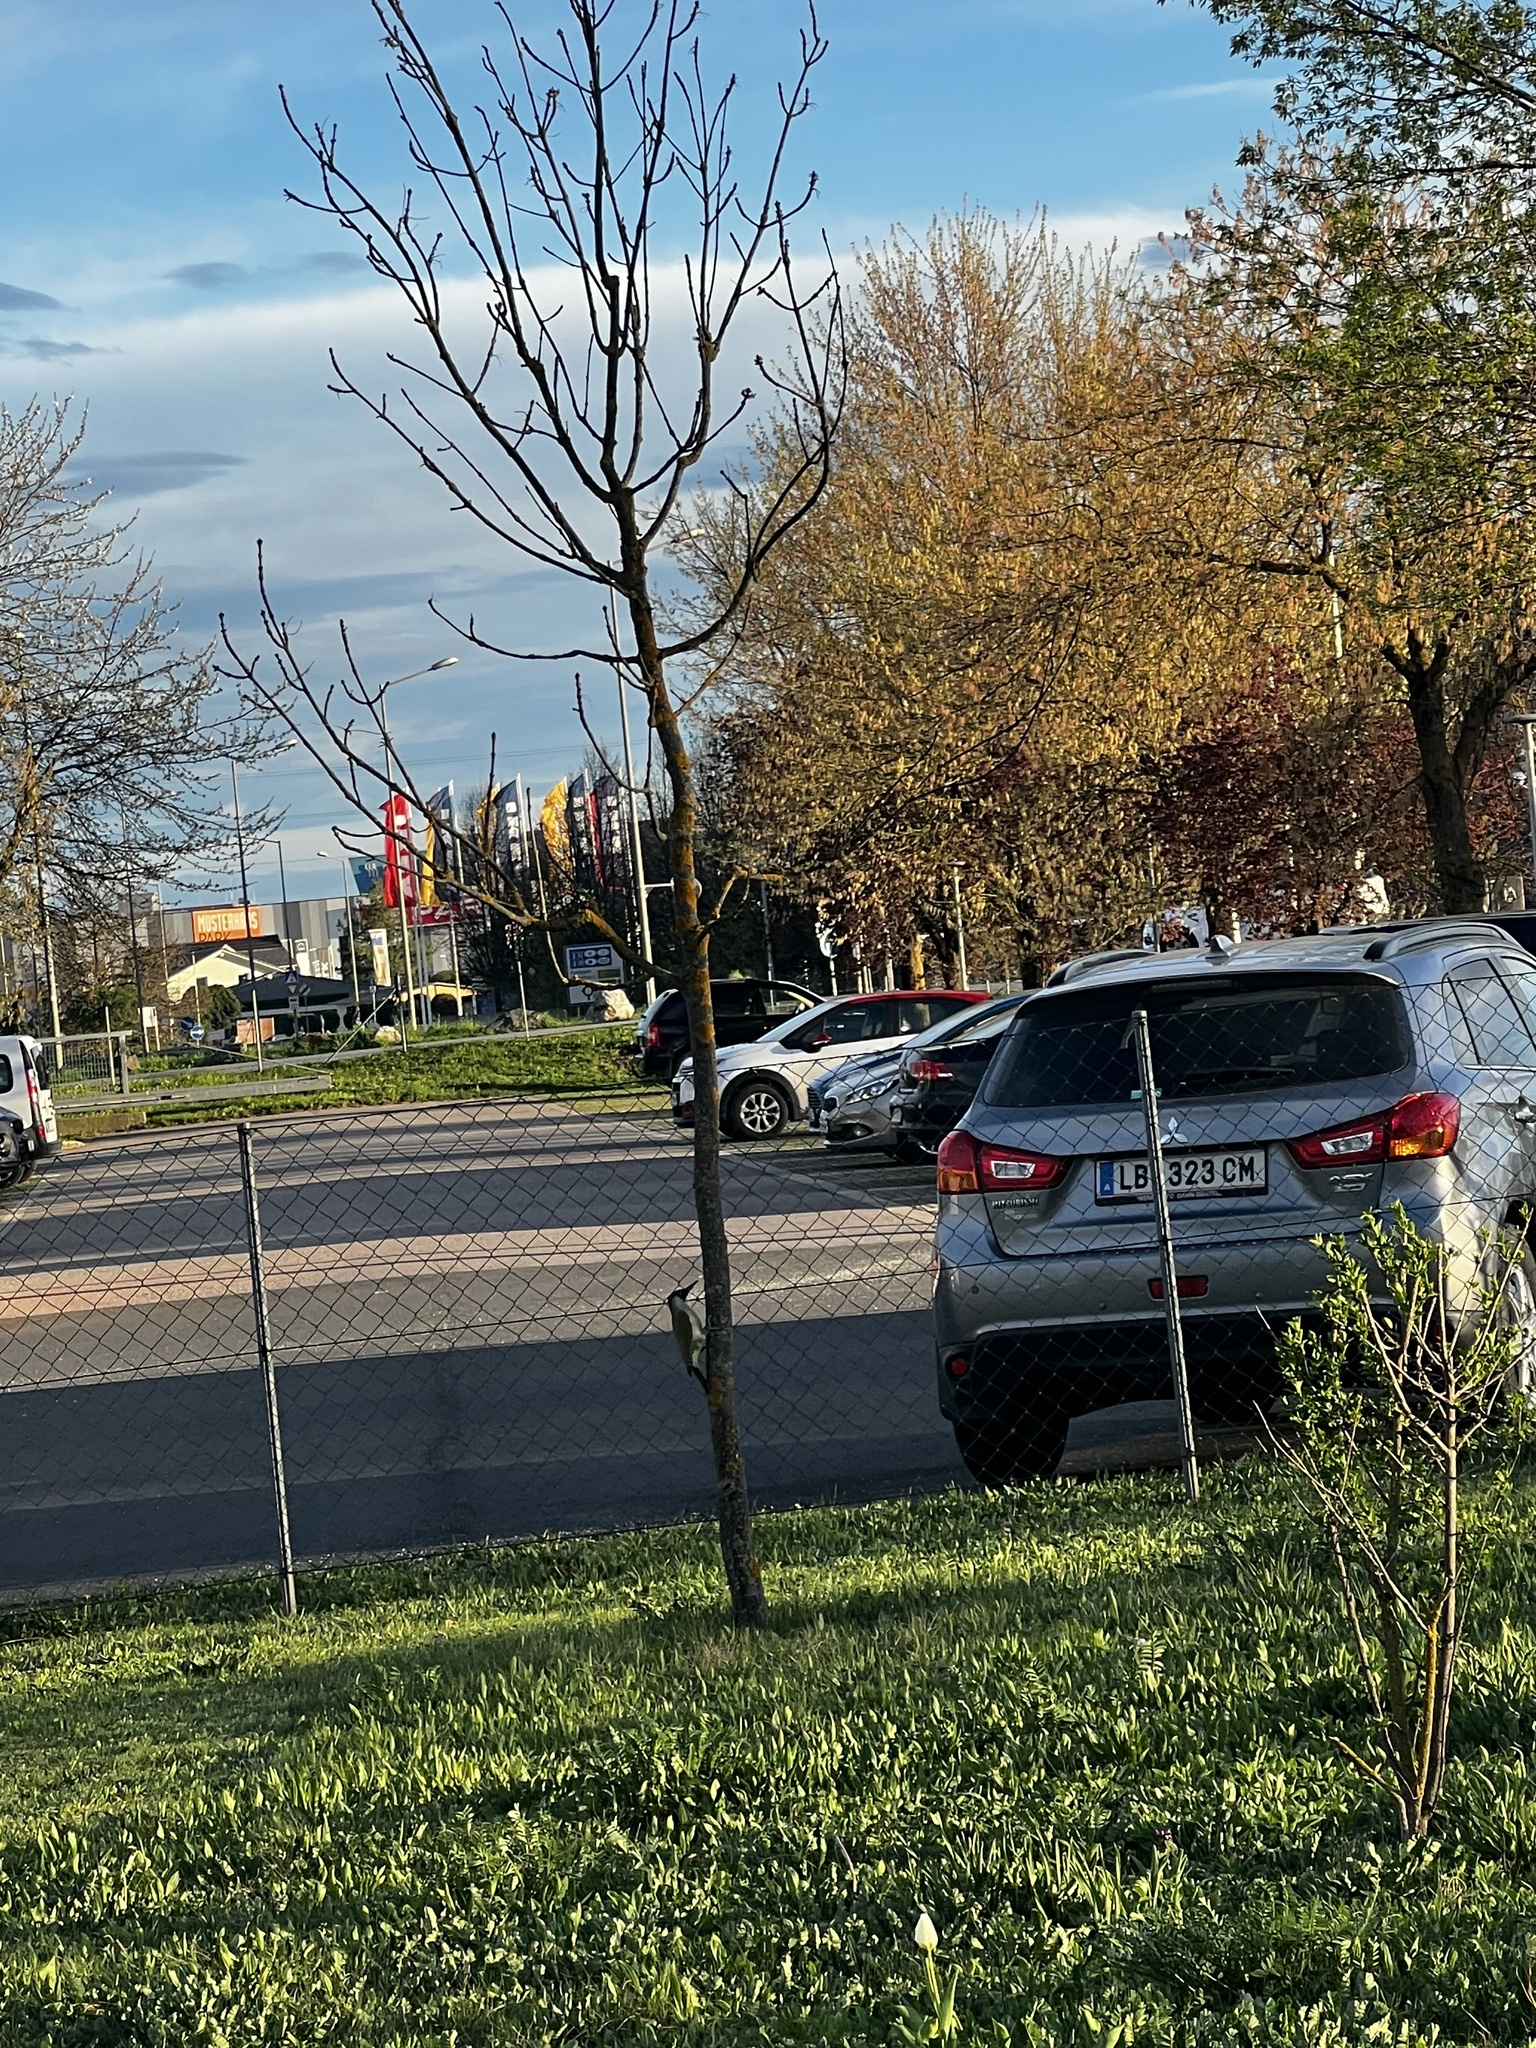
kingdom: Animalia
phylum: Chordata
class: Aves
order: Piciformes
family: Picidae
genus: Picus
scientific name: Picus viridis
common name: European green woodpecker
